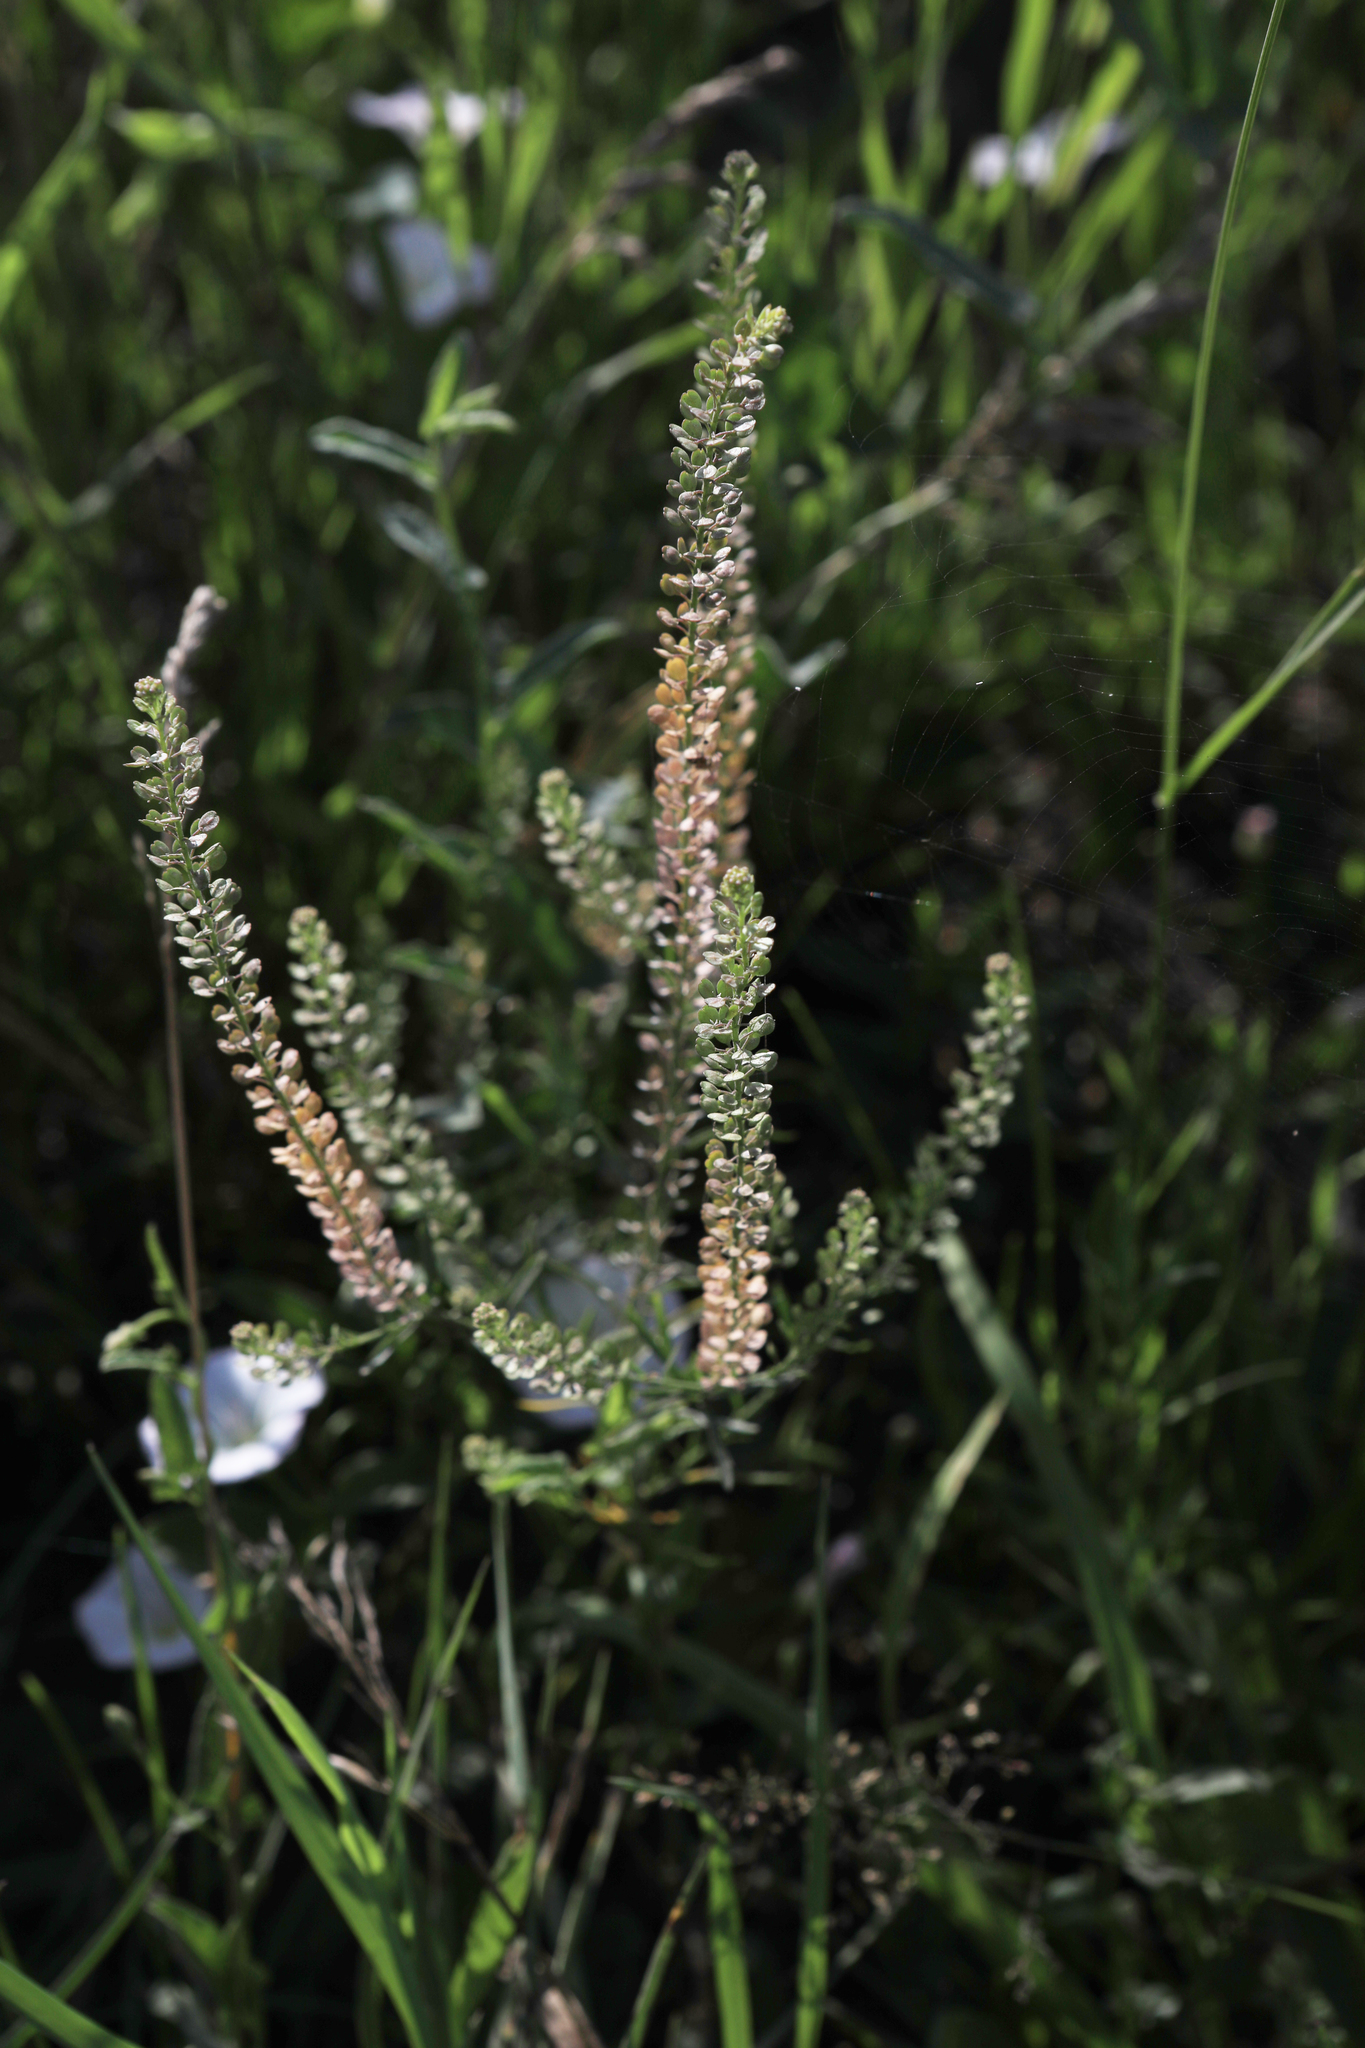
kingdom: Plantae
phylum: Tracheophyta
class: Magnoliopsida
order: Brassicales
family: Brassicaceae
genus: Lepidium
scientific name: Lepidium densiflorum
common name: Miner's pepperwort
